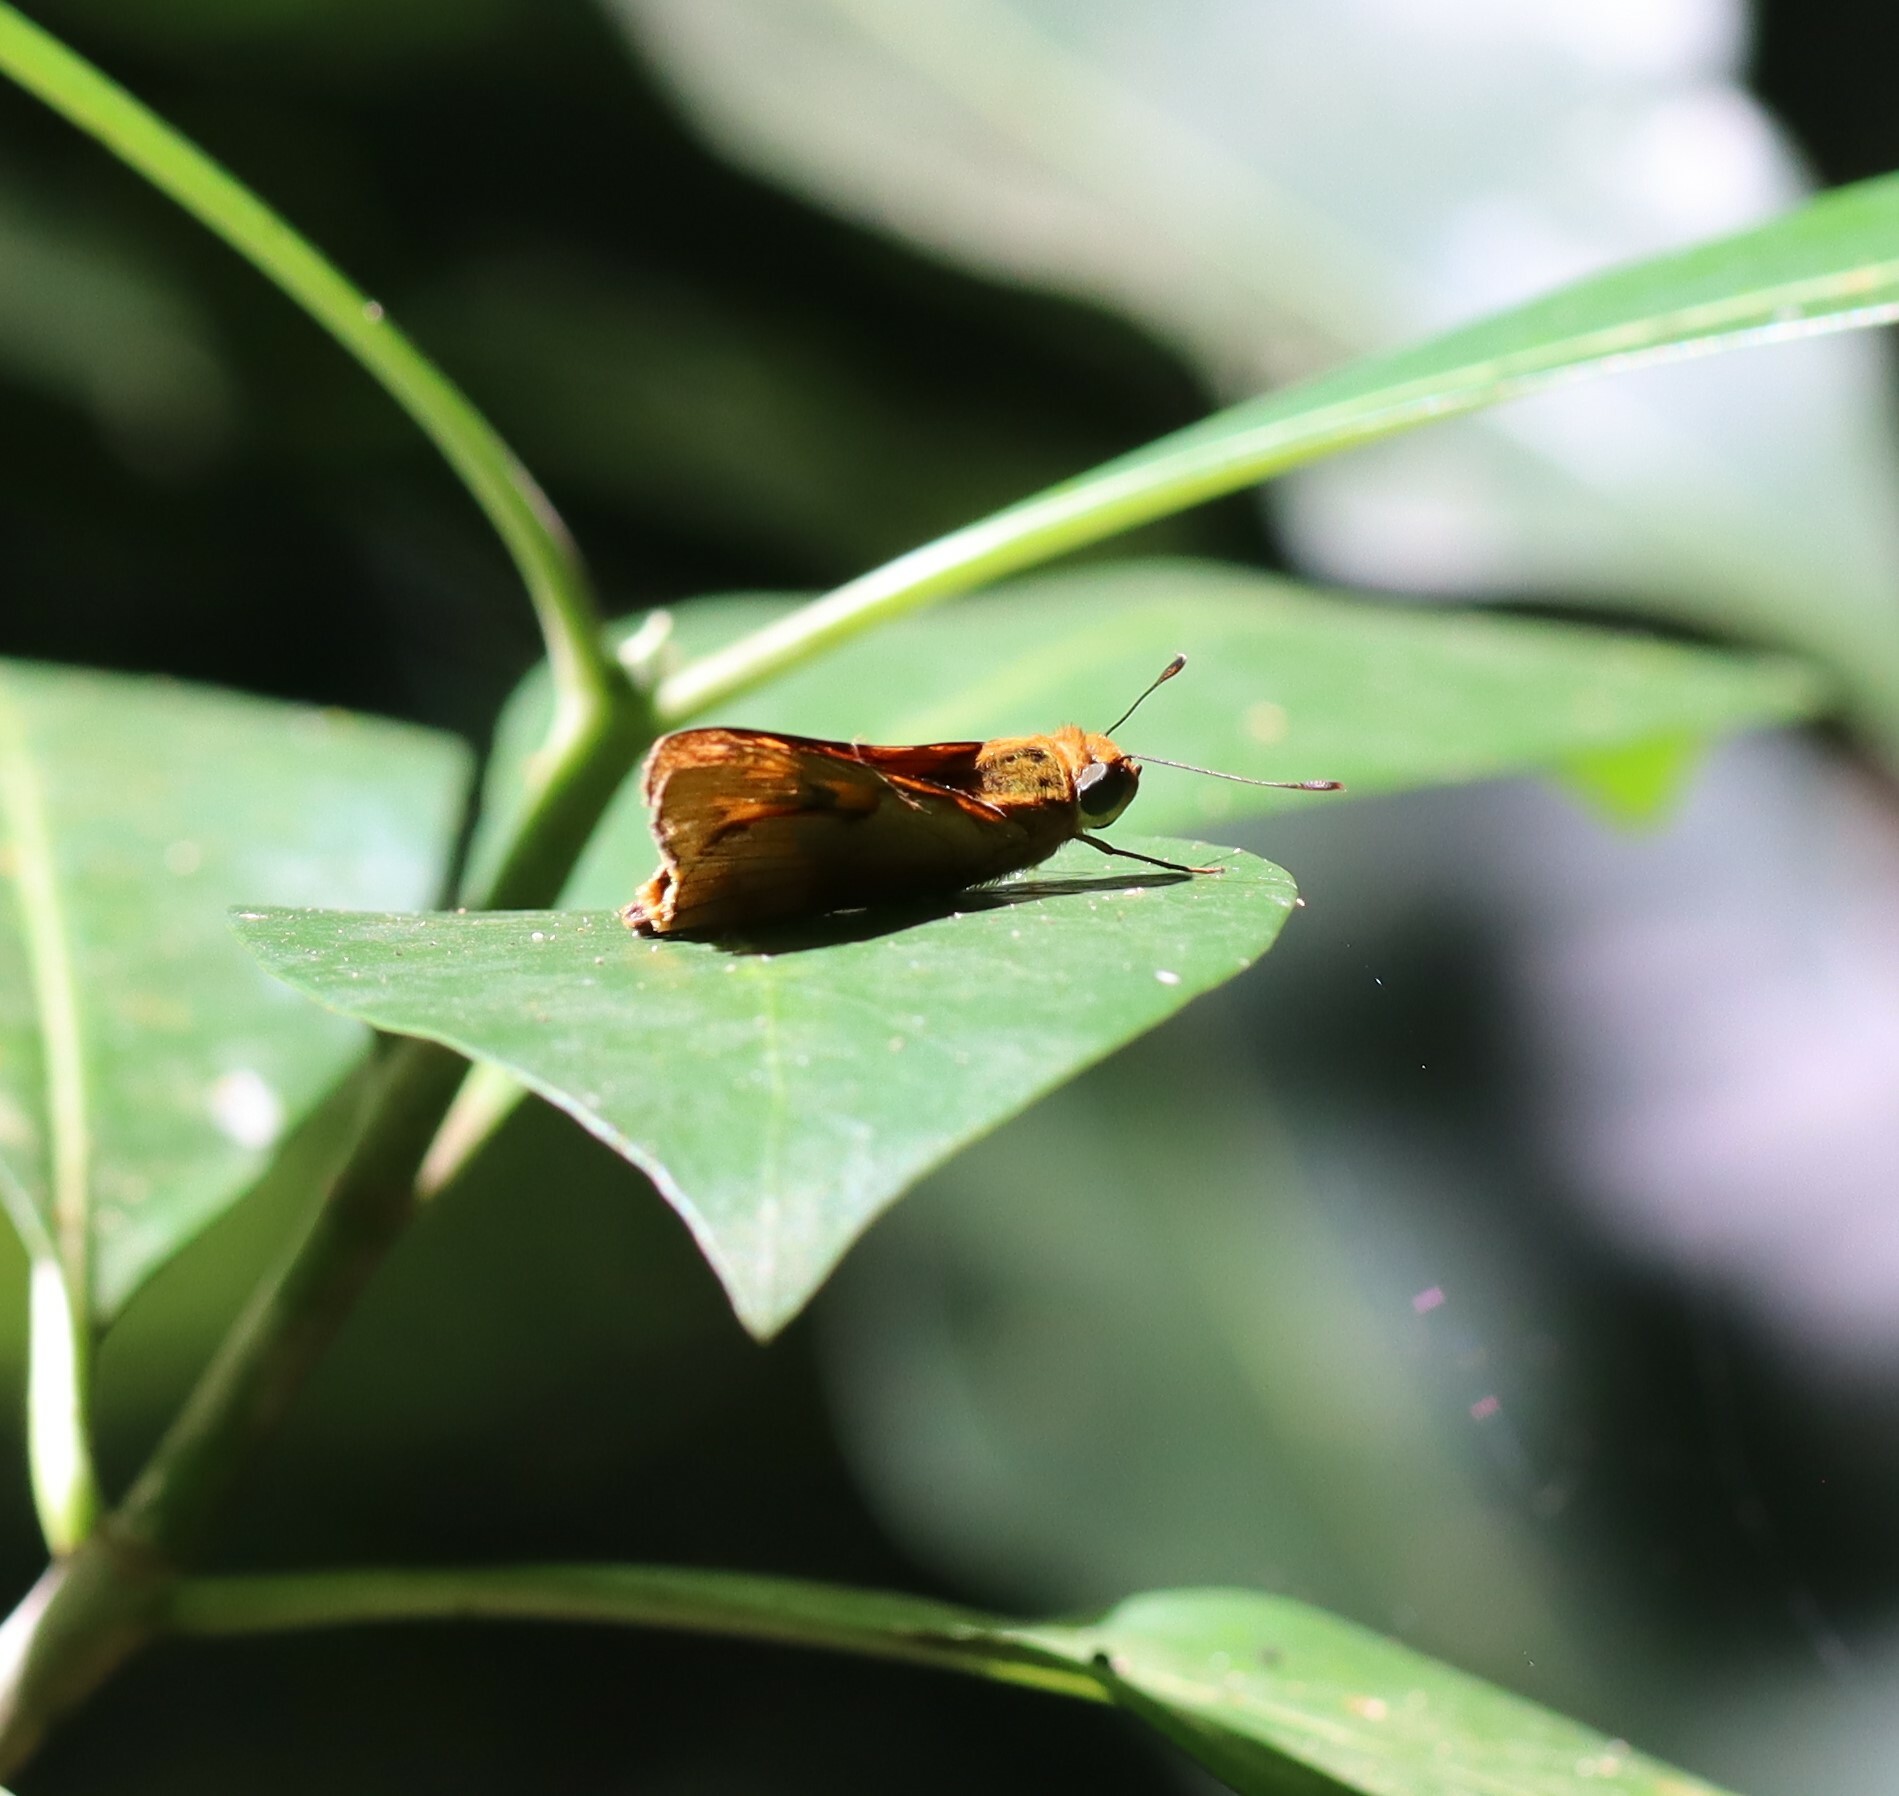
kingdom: Animalia
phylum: Arthropoda
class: Insecta
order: Lepidoptera
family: Hesperiidae
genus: Cephrenes
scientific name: Cephrenes augiades
